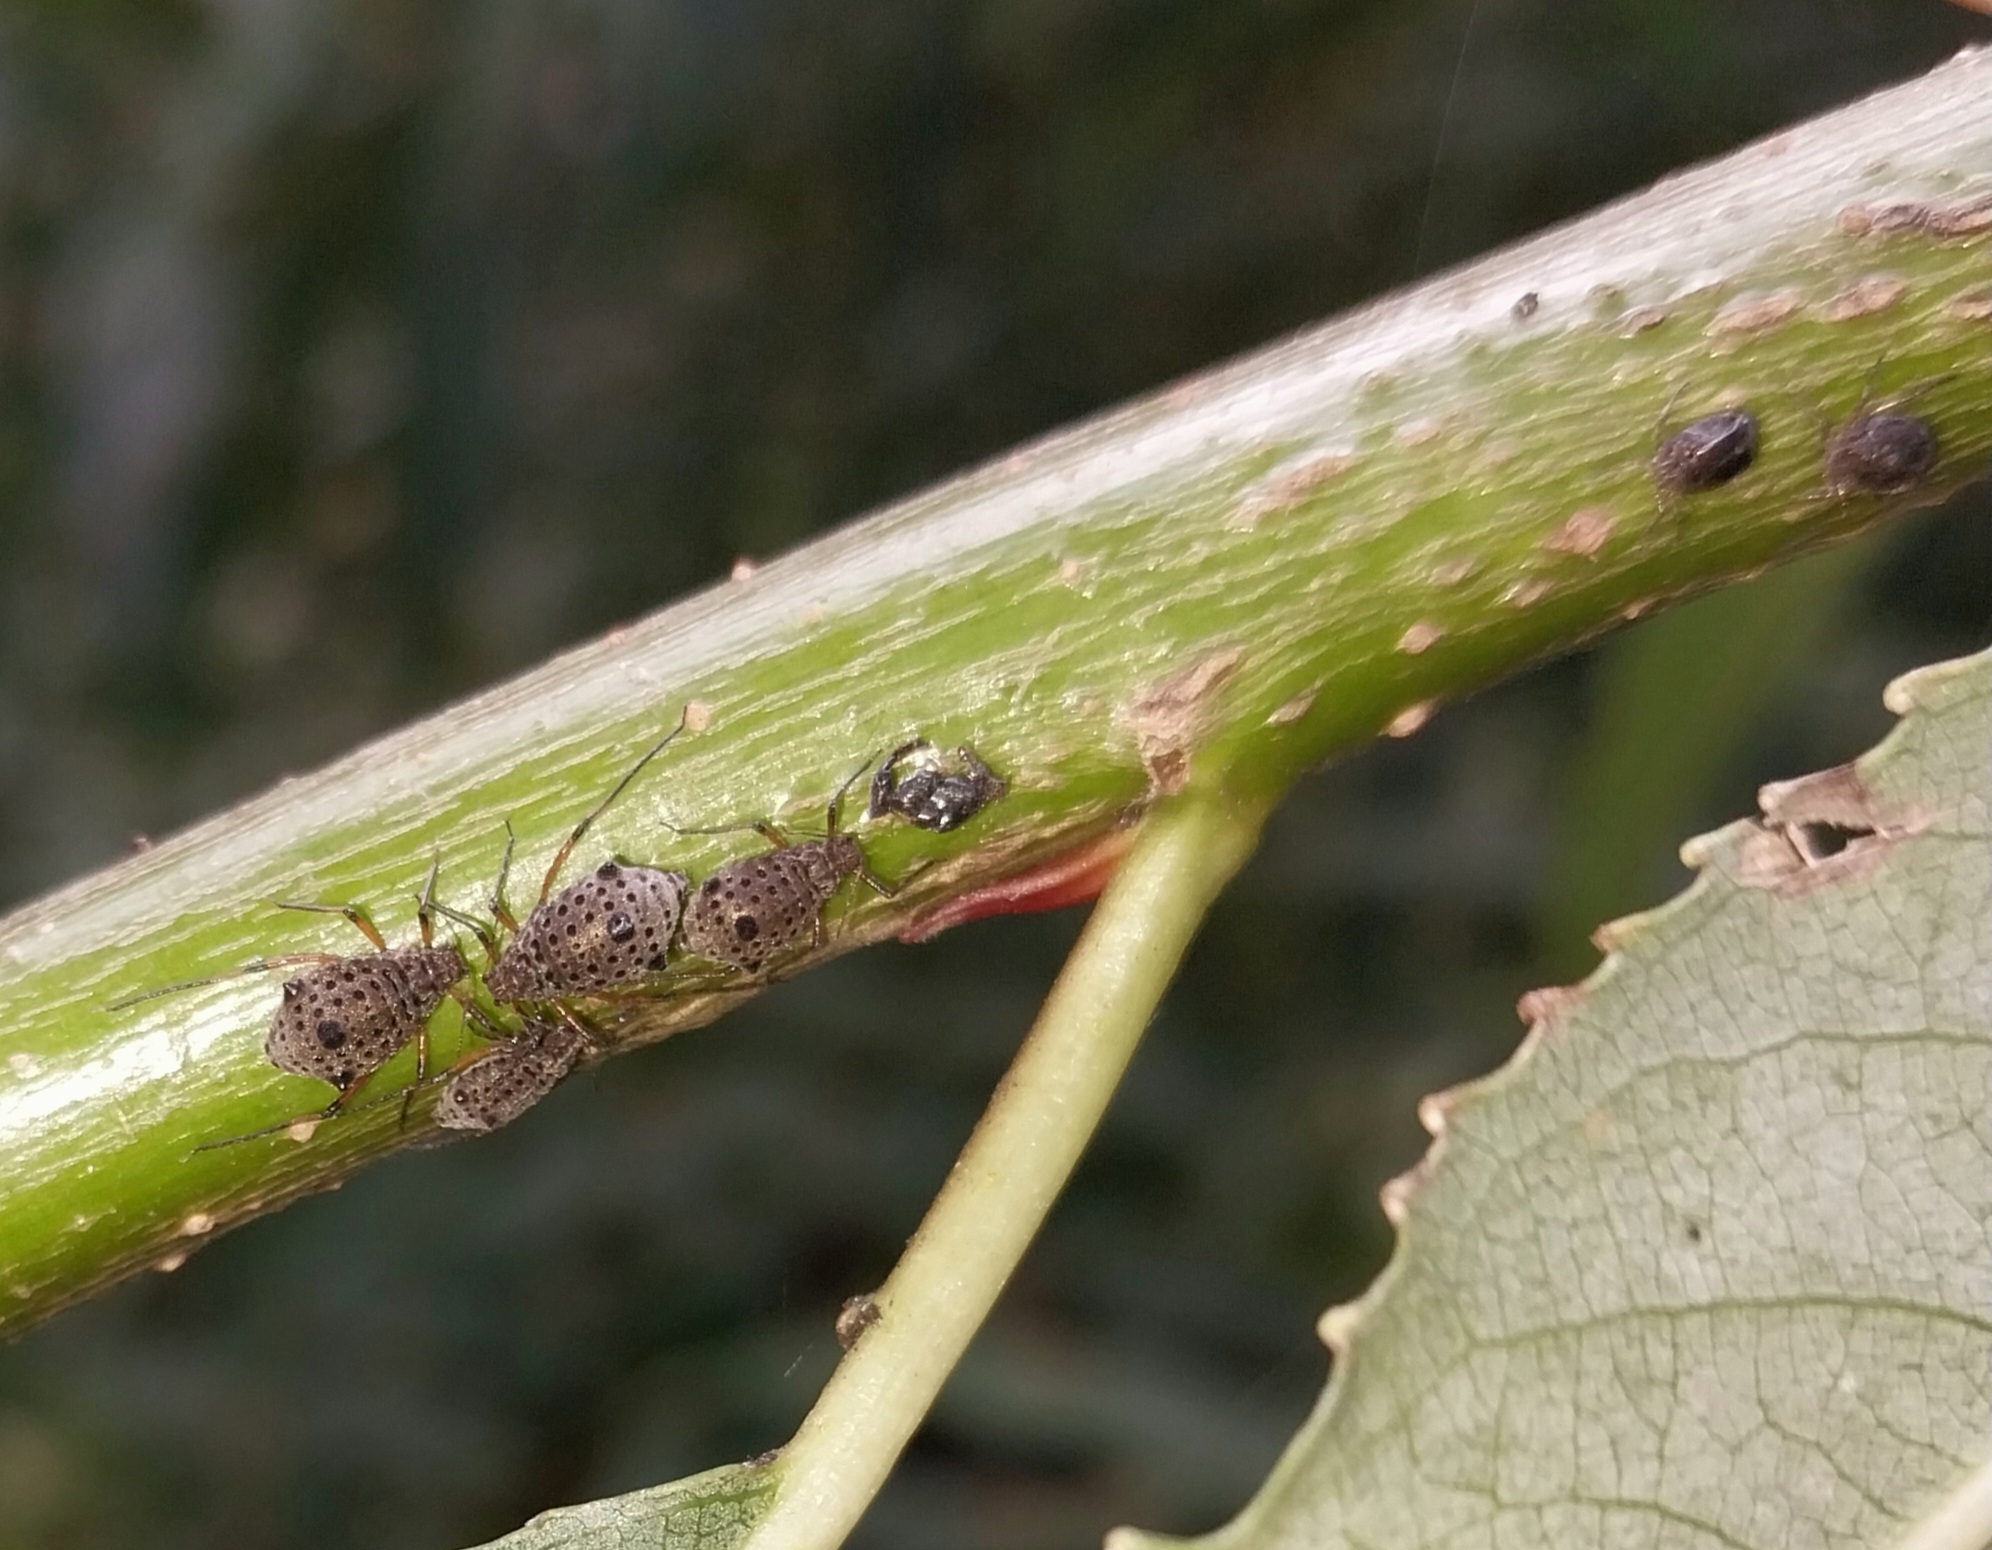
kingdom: Animalia
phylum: Arthropoda
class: Insecta
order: Hemiptera
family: Aphididae
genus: Tuberolachnus
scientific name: Tuberolachnus salignus
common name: Giant willow aphid
